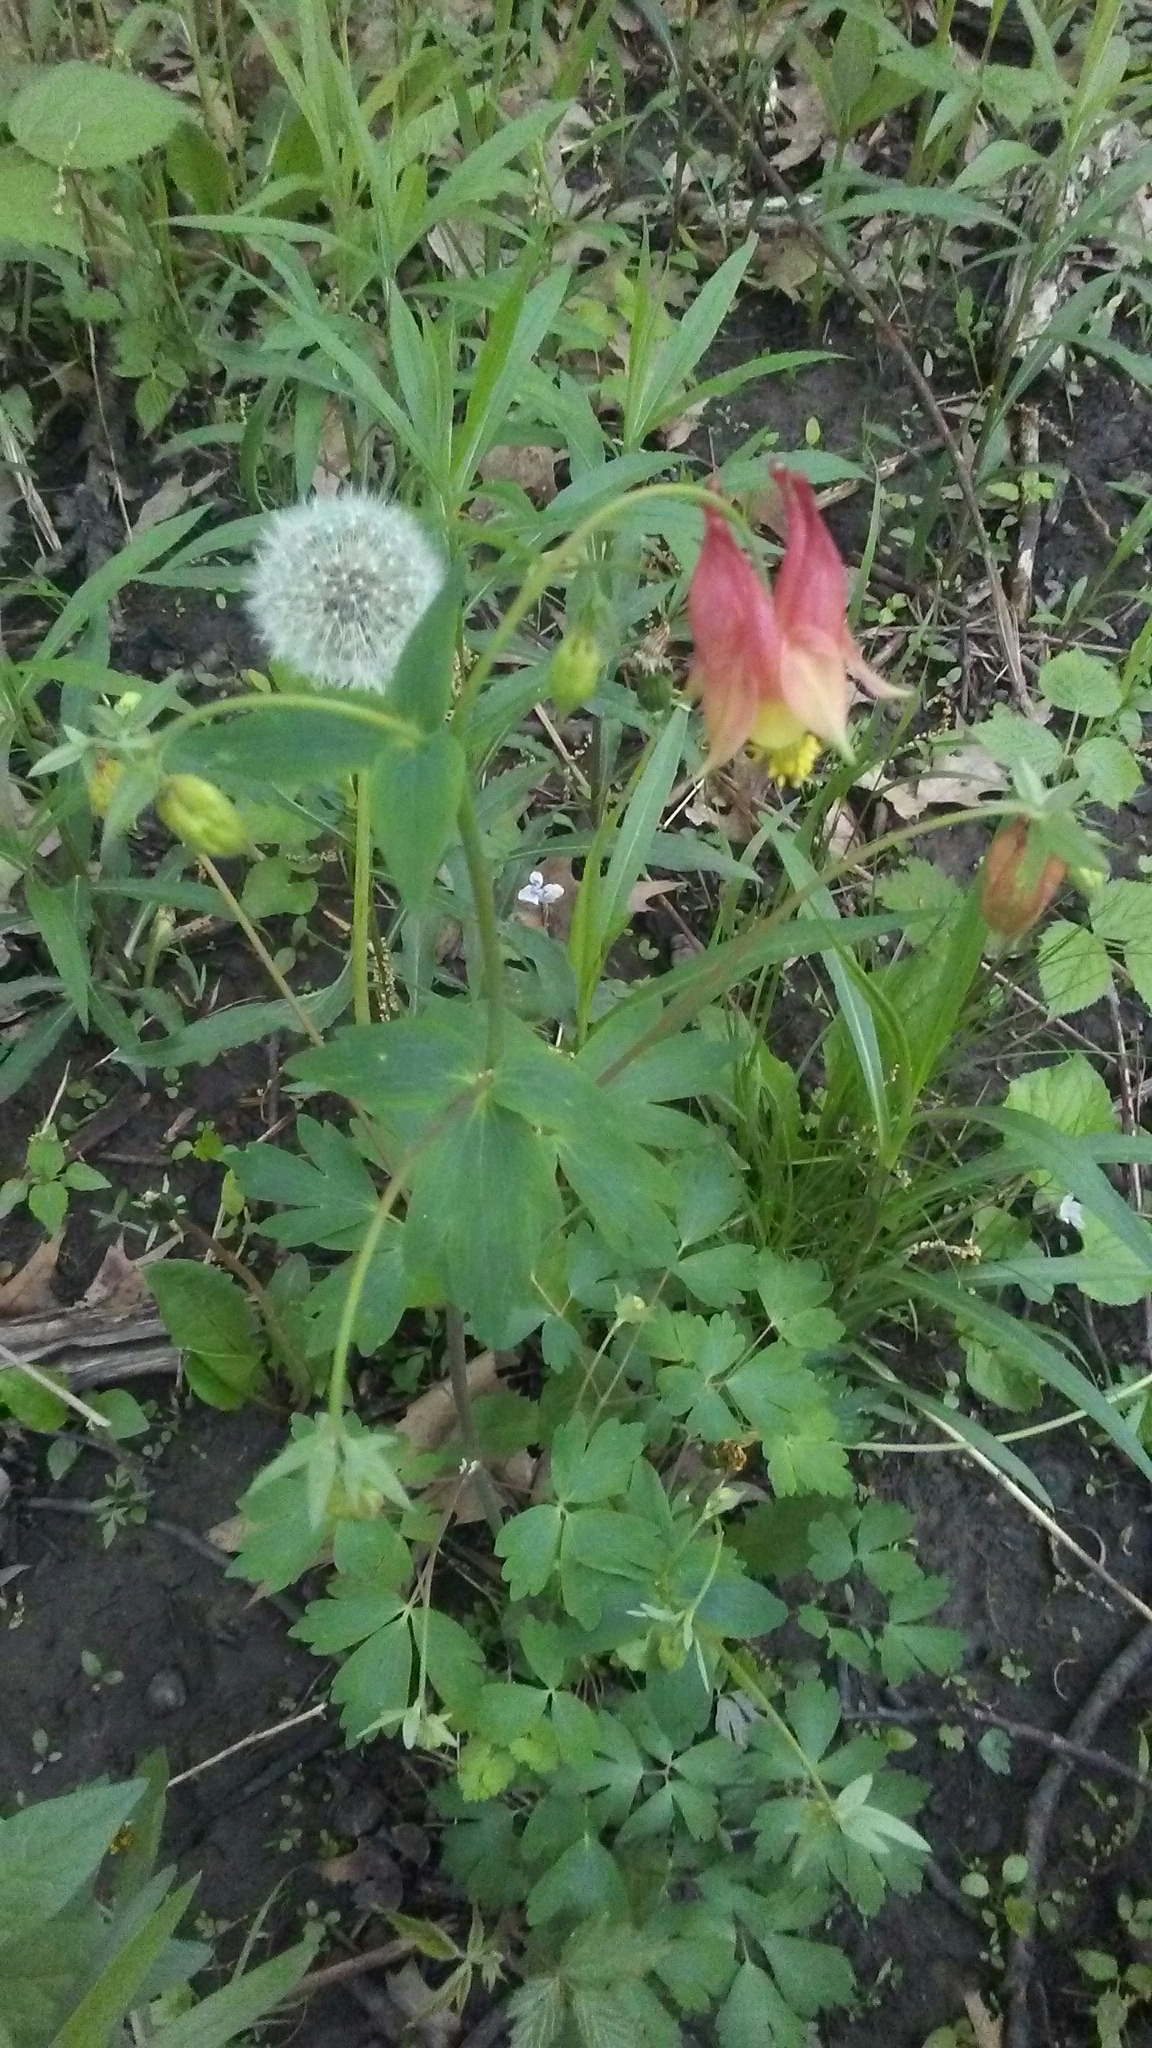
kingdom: Plantae
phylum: Tracheophyta
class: Magnoliopsida
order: Ranunculales
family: Ranunculaceae
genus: Aquilegia
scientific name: Aquilegia canadensis
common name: American columbine
